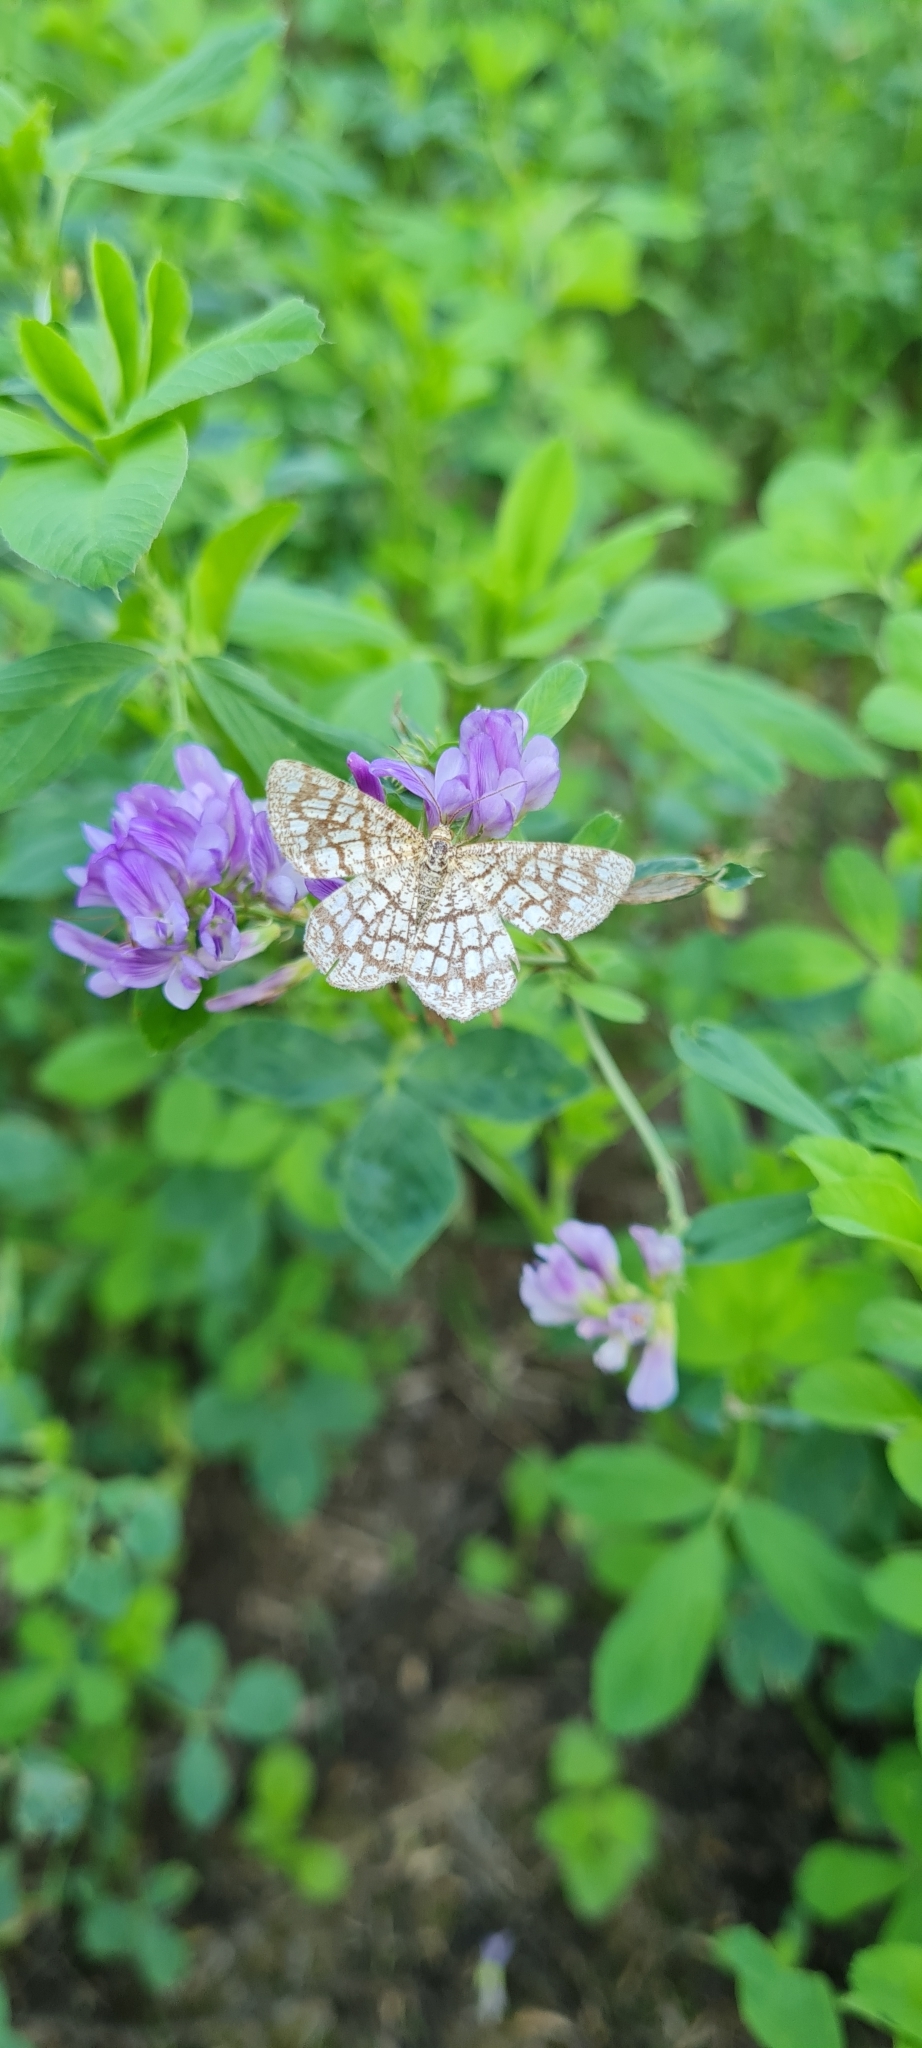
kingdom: Animalia
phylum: Arthropoda
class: Insecta
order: Lepidoptera
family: Geometridae
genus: Chiasmia
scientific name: Chiasmia clathrata
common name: Latticed heath
